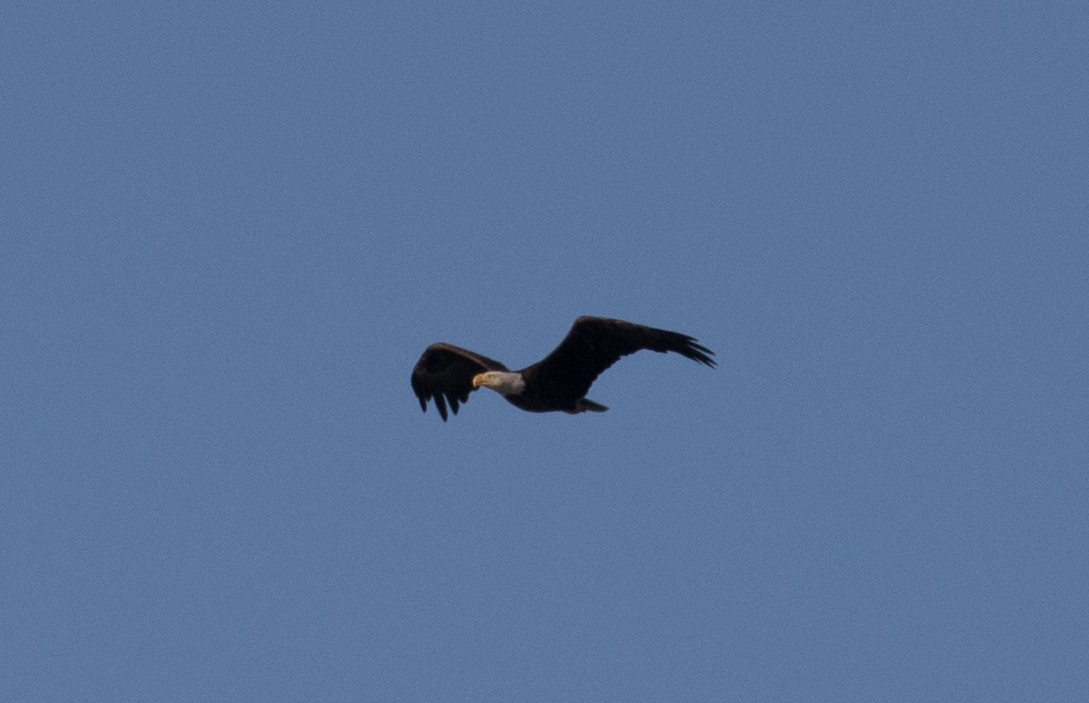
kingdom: Animalia
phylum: Chordata
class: Aves
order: Accipitriformes
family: Accipitridae
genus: Haliaeetus
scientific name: Haliaeetus leucocephalus
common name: Bald eagle
